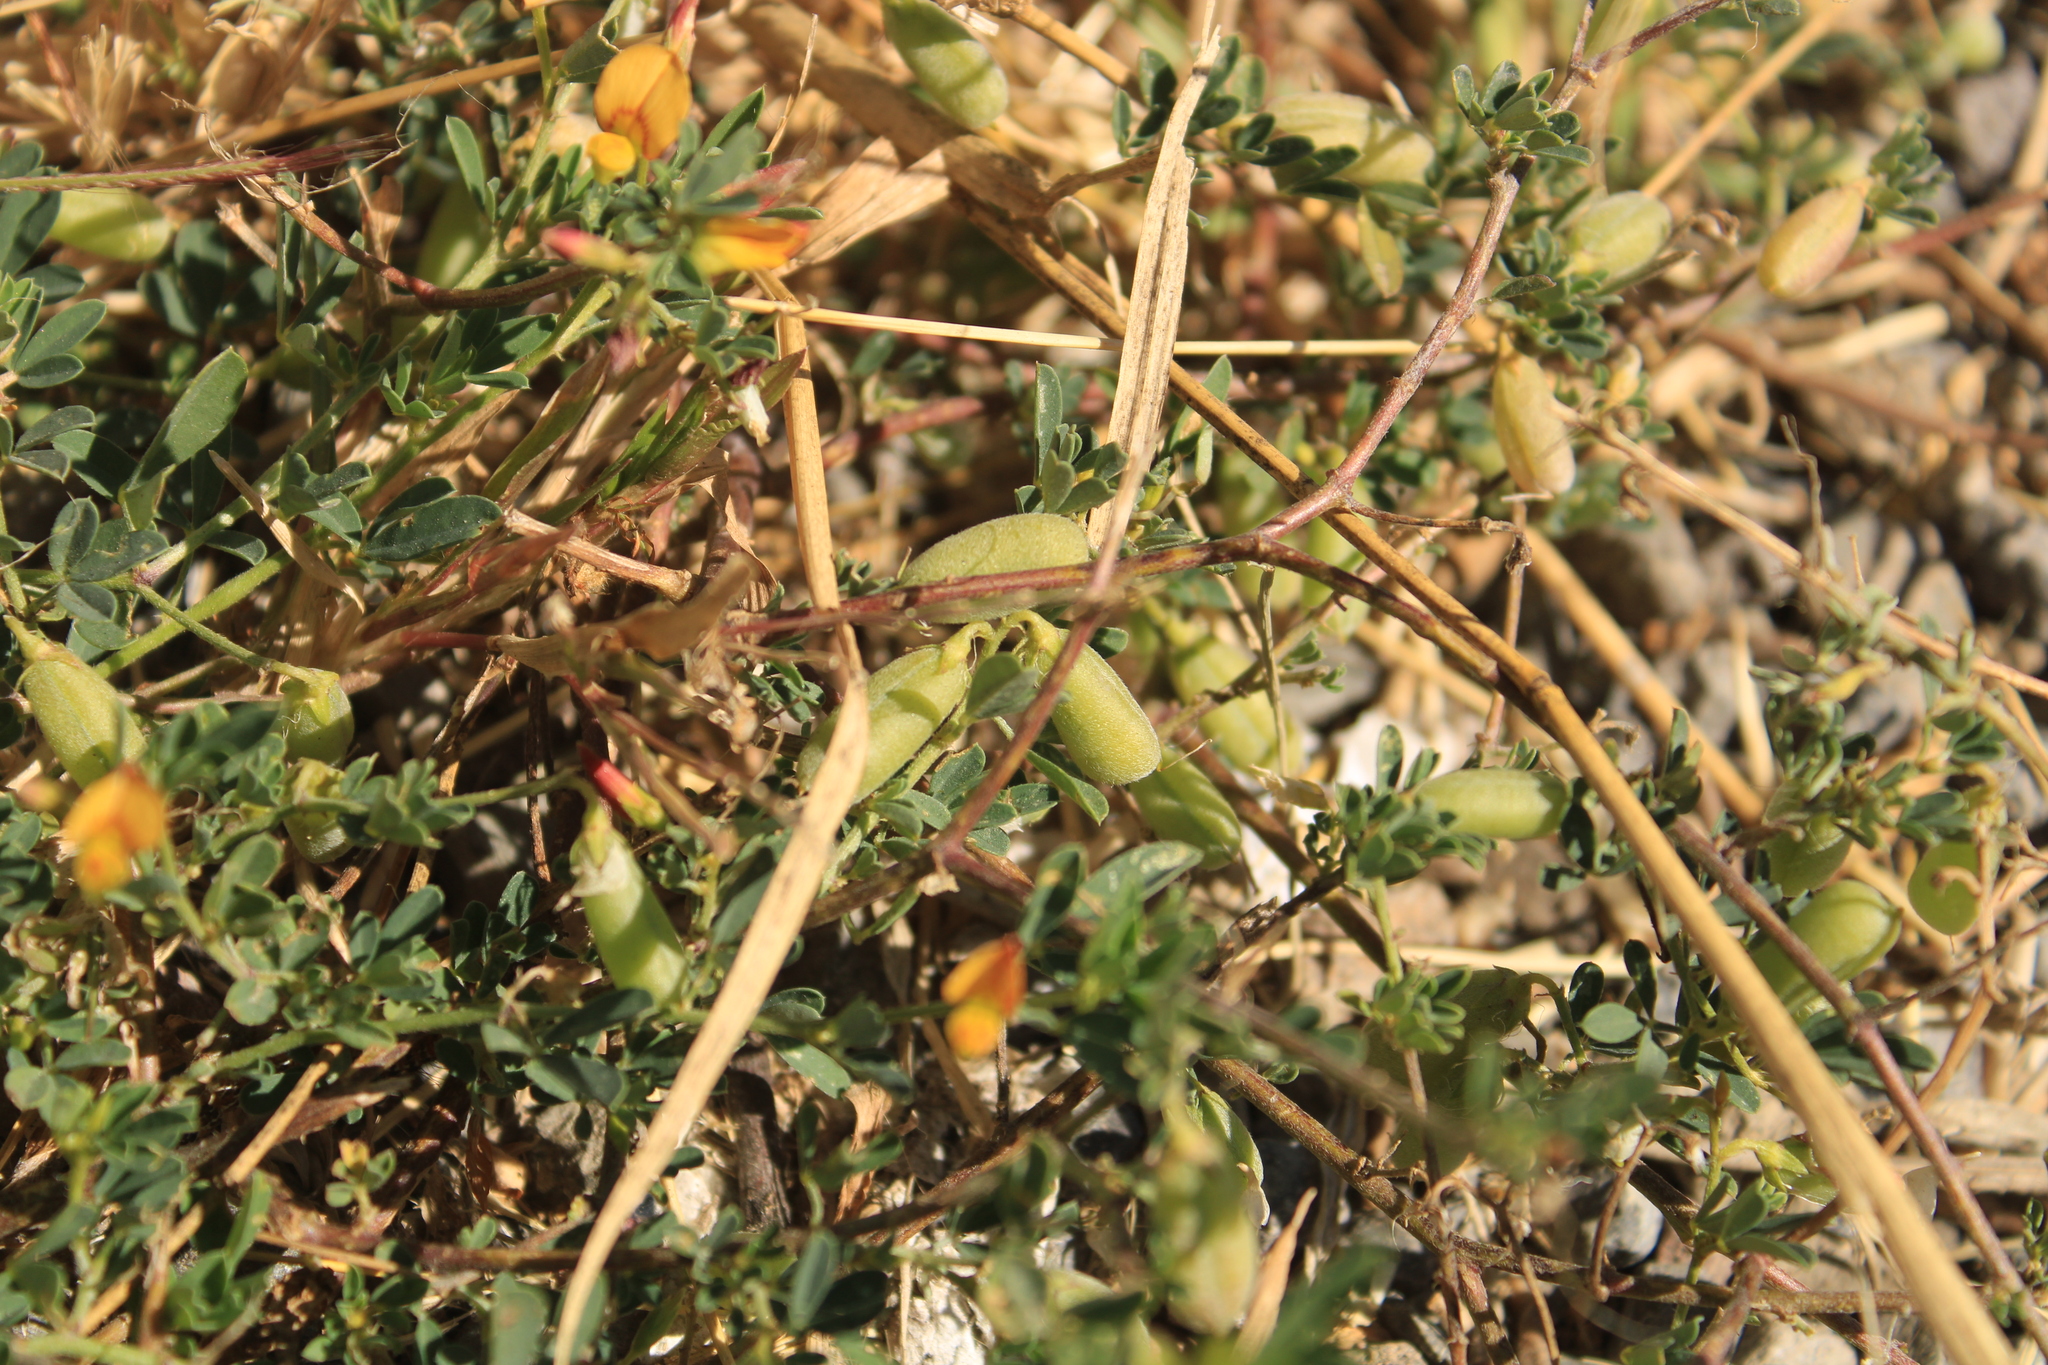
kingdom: Plantae
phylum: Tracheophyta
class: Magnoliopsida
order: Fabales
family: Fabaceae
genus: Crotalaria
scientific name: Crotalaria pumila
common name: Low rattlebox
